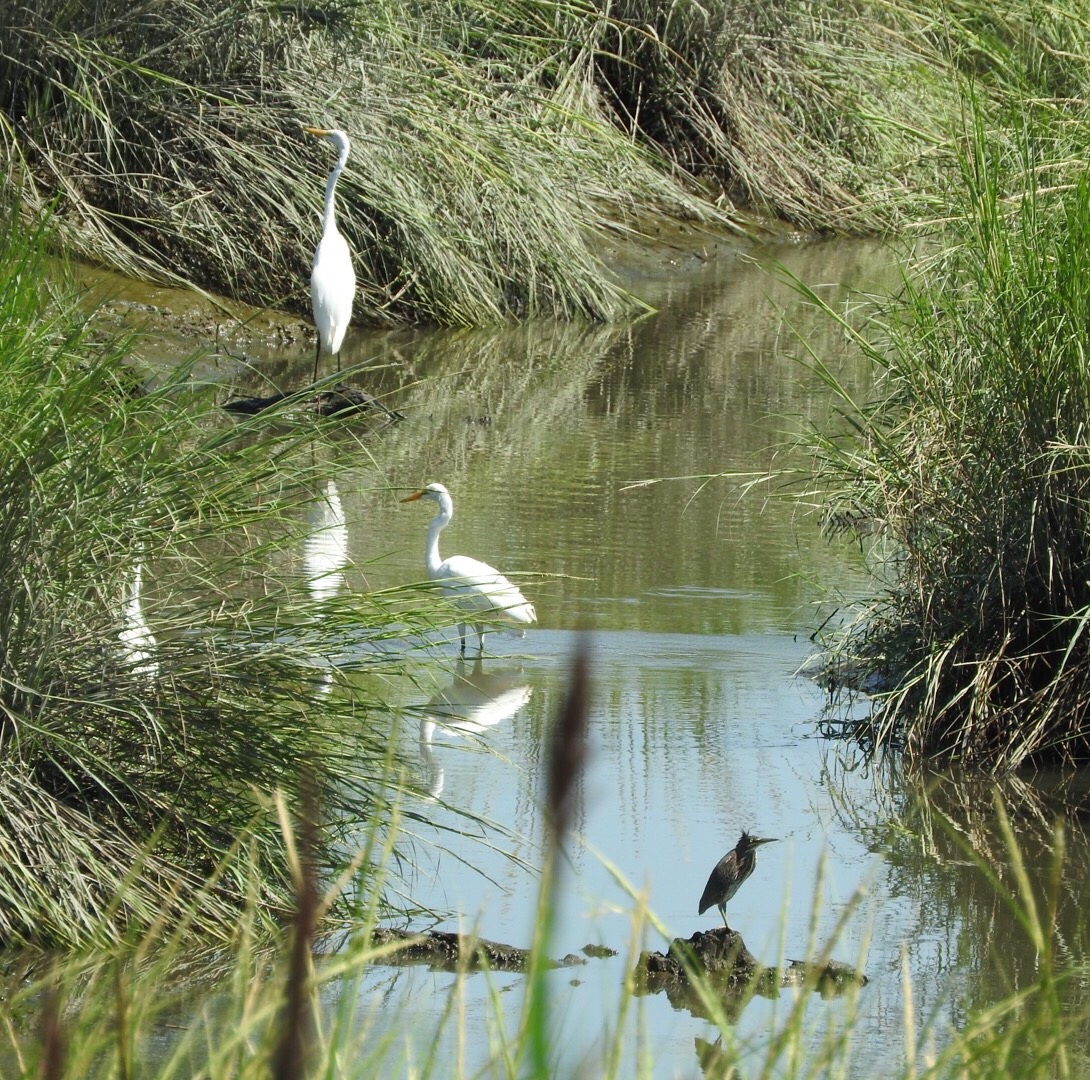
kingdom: Animalia
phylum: Chordata
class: Aves
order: Pelecaniformes
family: Ardeidae
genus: Ardea
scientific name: Ardea alba
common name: Great egret
